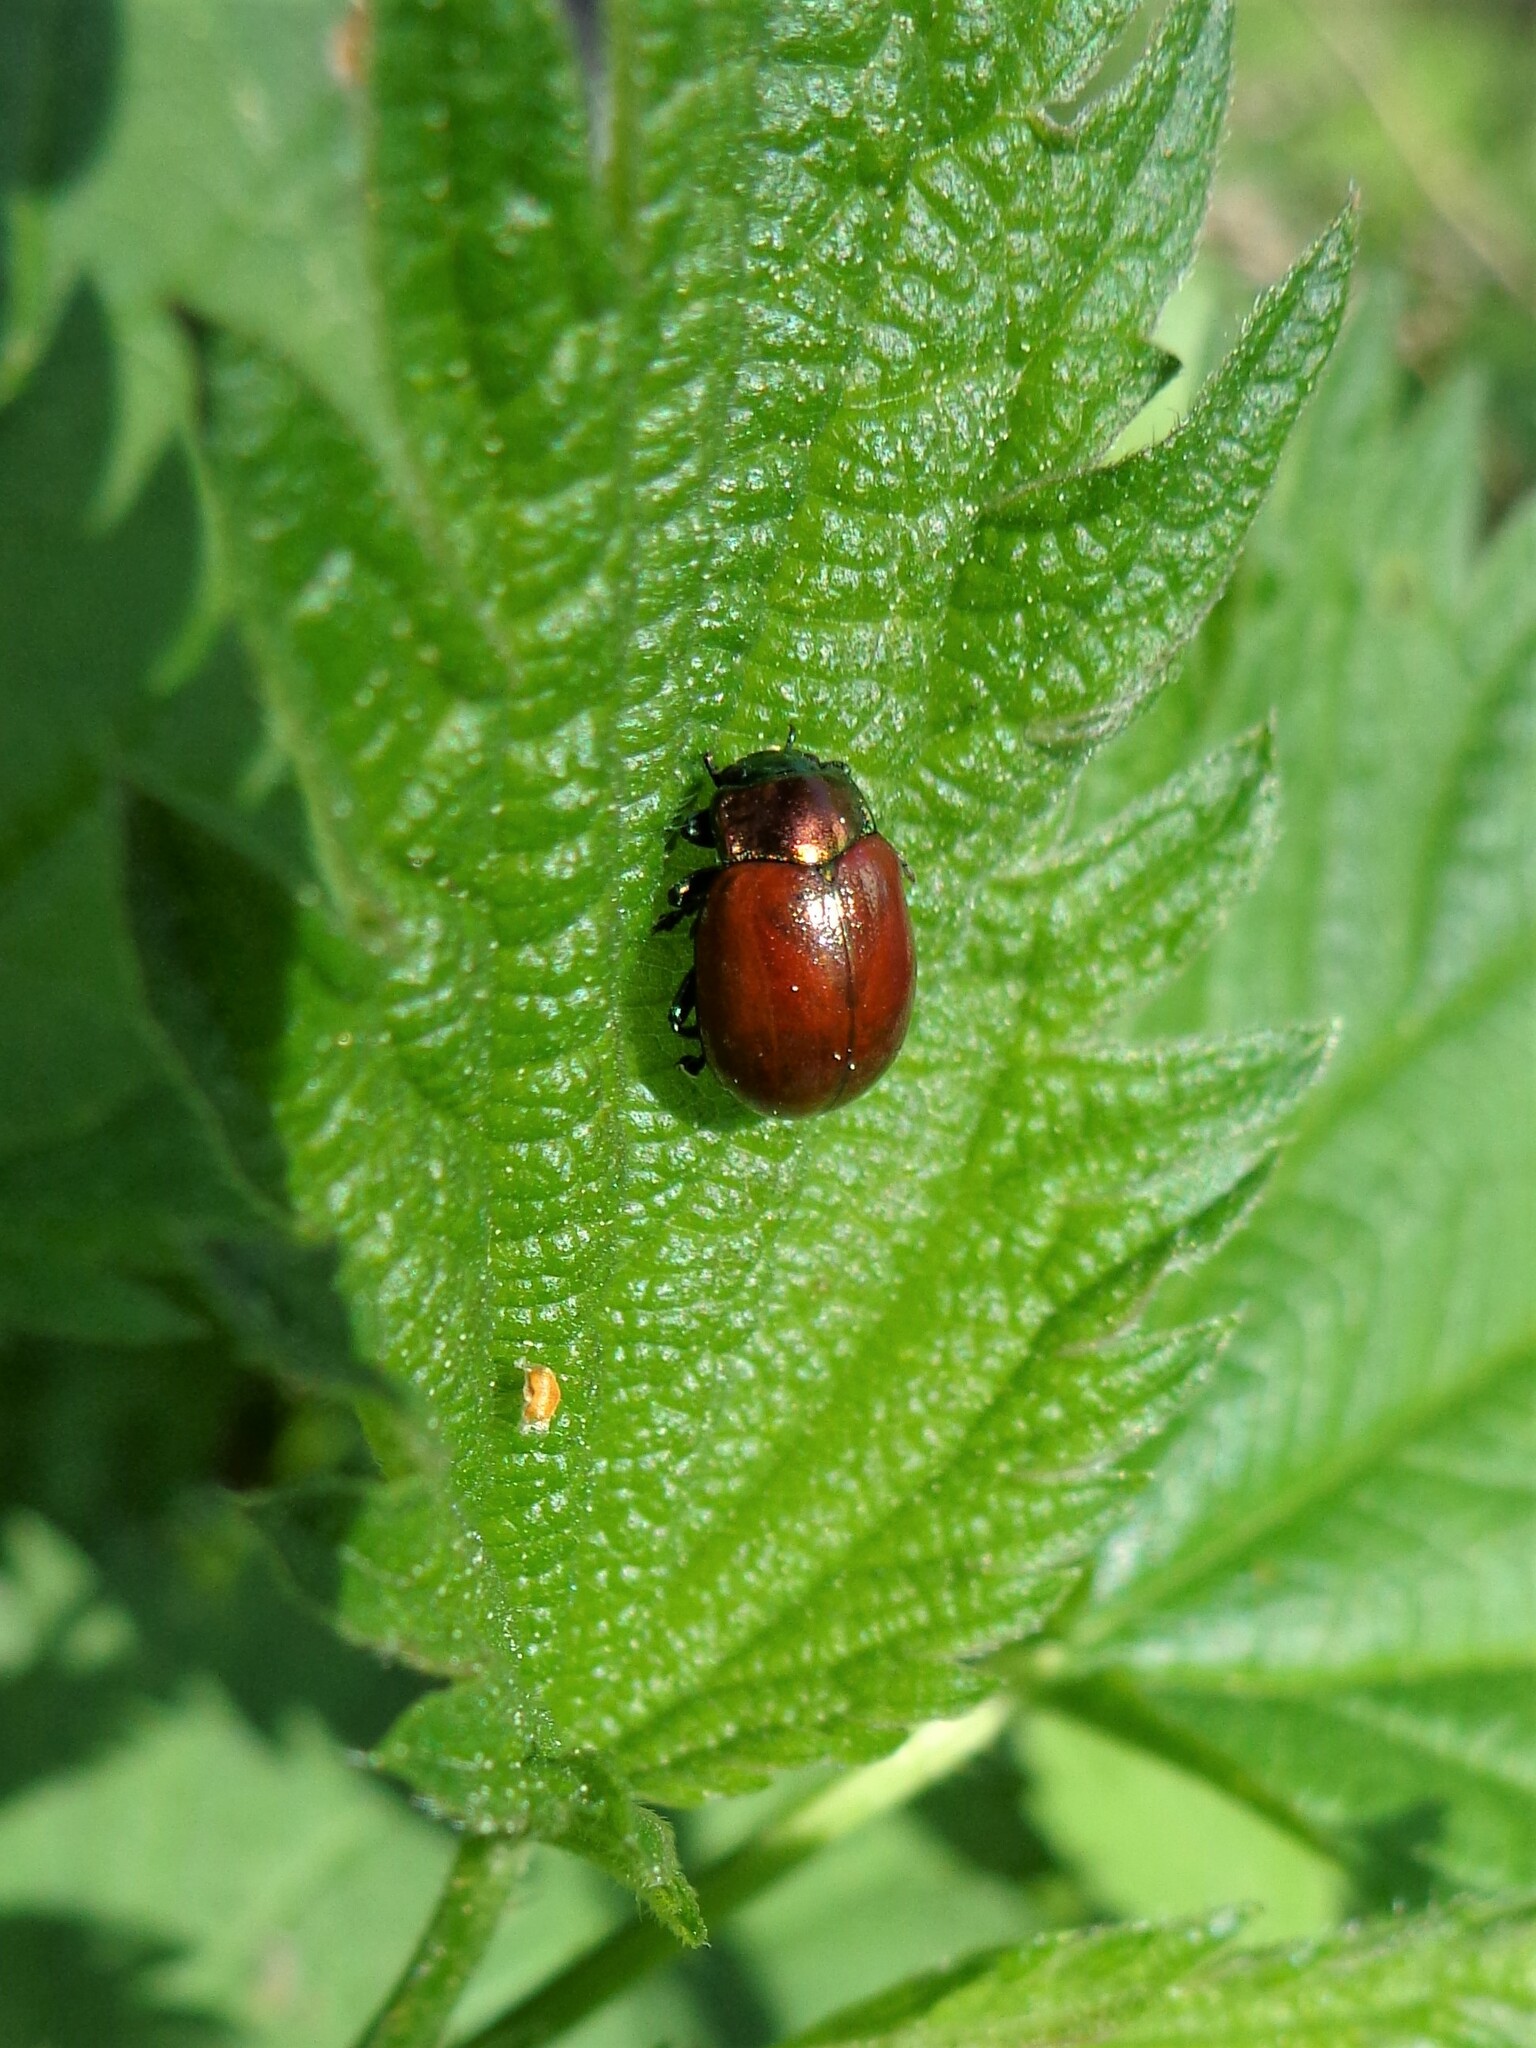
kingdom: Animalia
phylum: Arthropoda
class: Insecta
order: Coleoptera
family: Chrysomelidae
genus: Chrysomela
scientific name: Chrysomela polita
